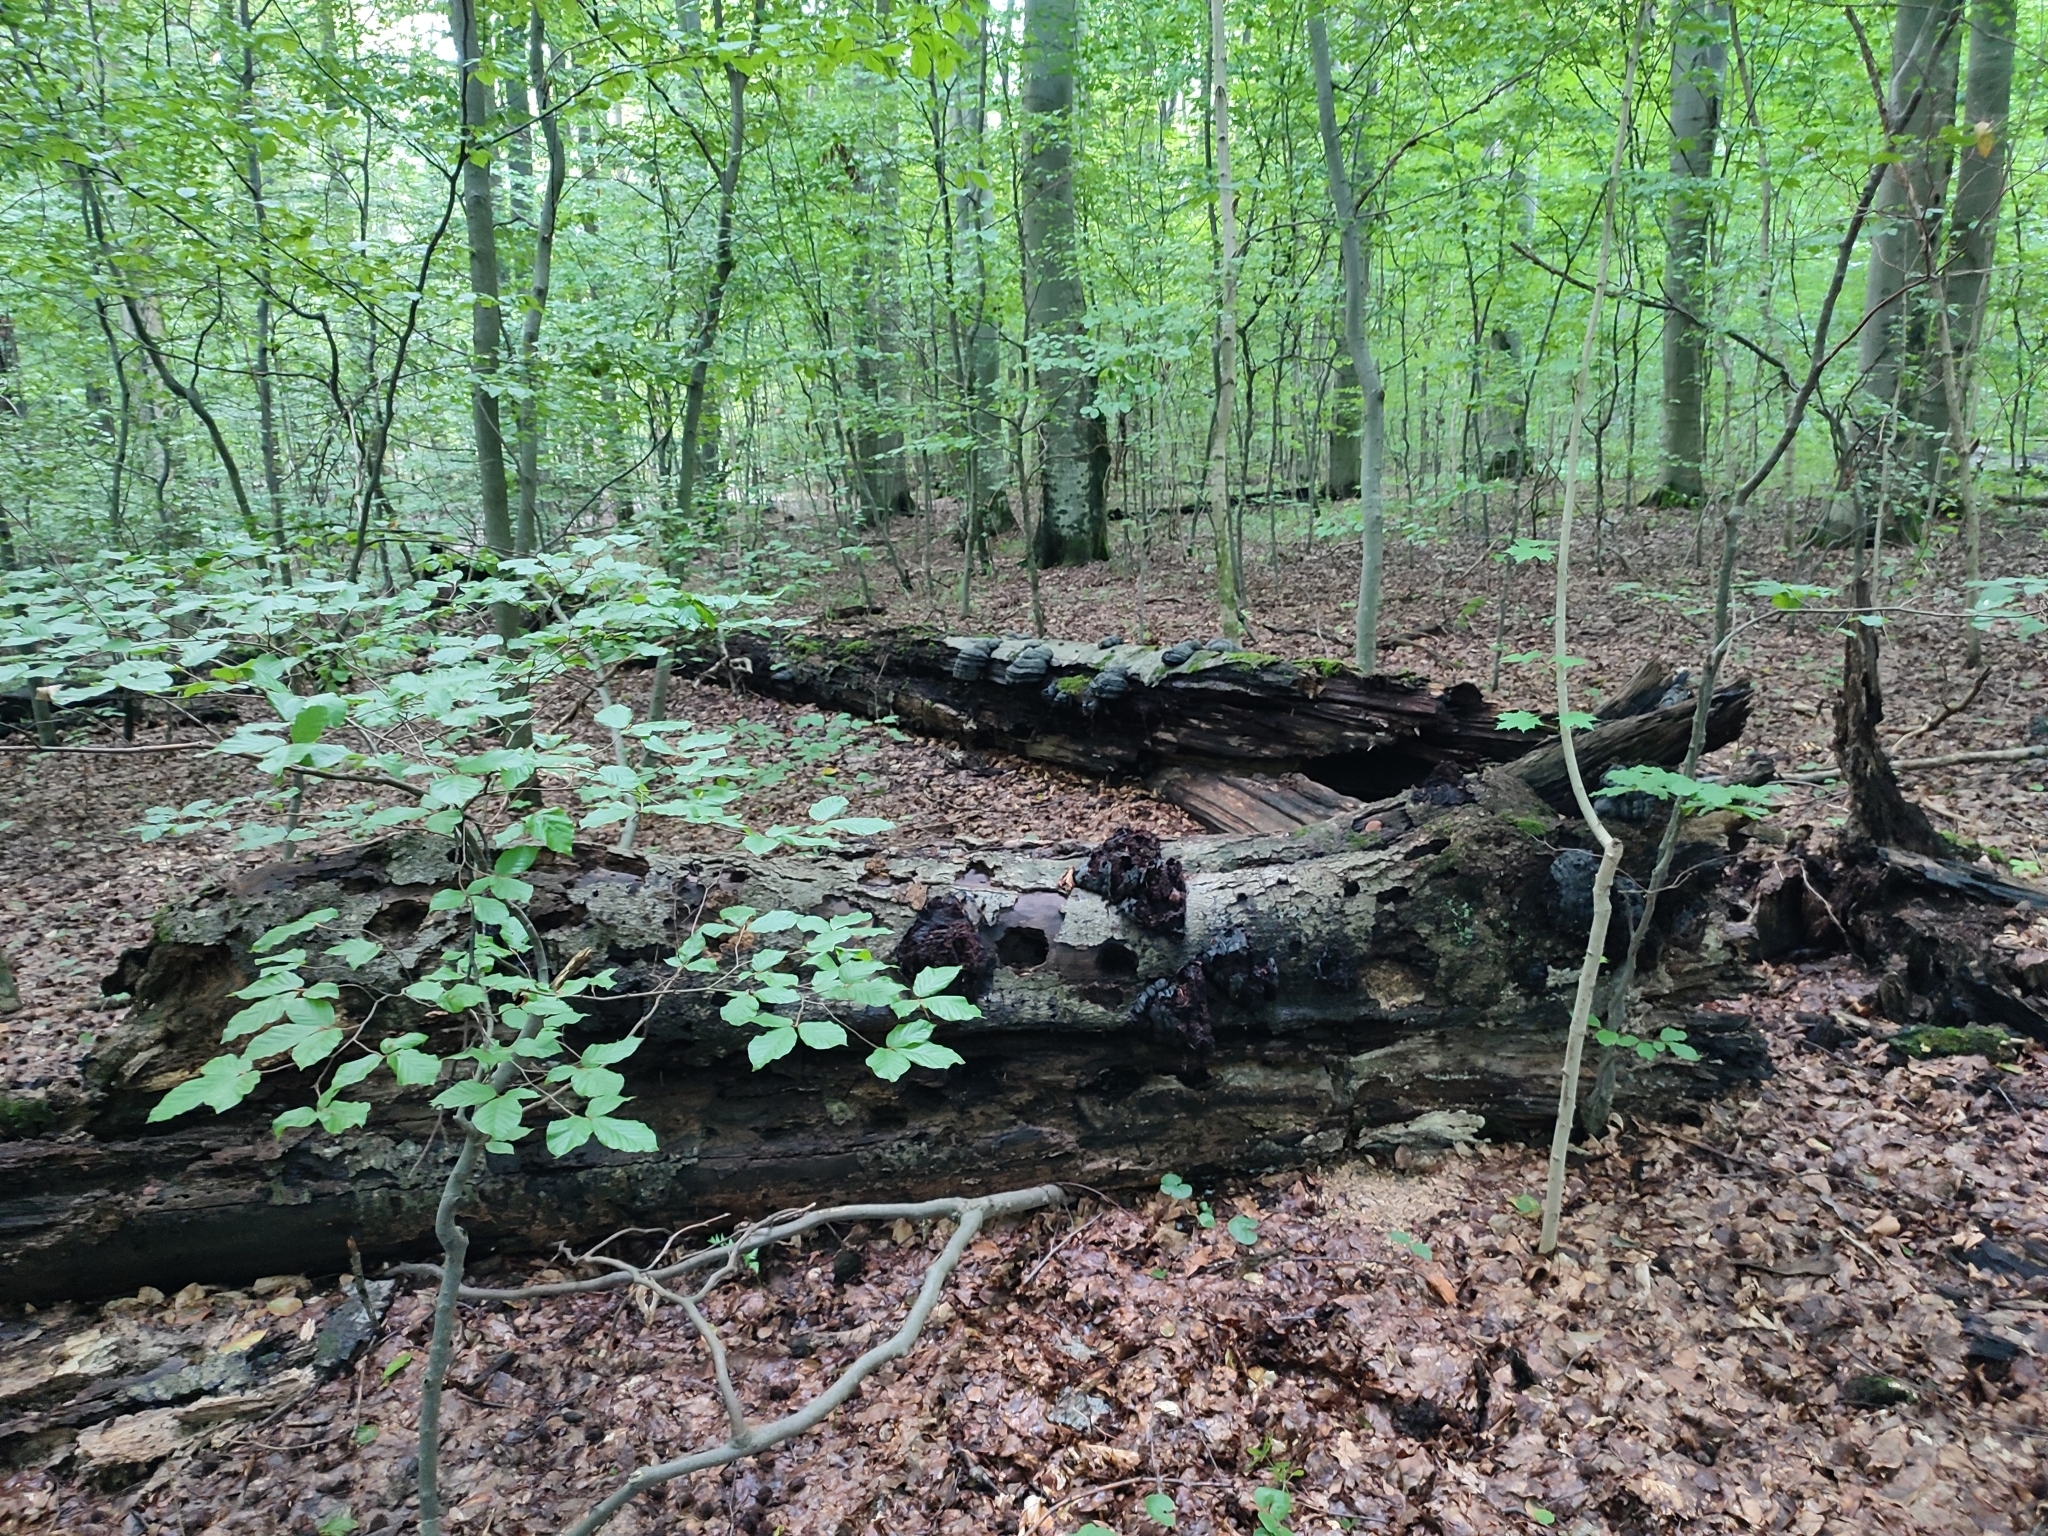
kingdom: Plantae
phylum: Tracheophyta
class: Magnoliopsida
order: Fagales
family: Fagaceae
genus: Fagus
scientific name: Fagus sylvatica
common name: Beech
